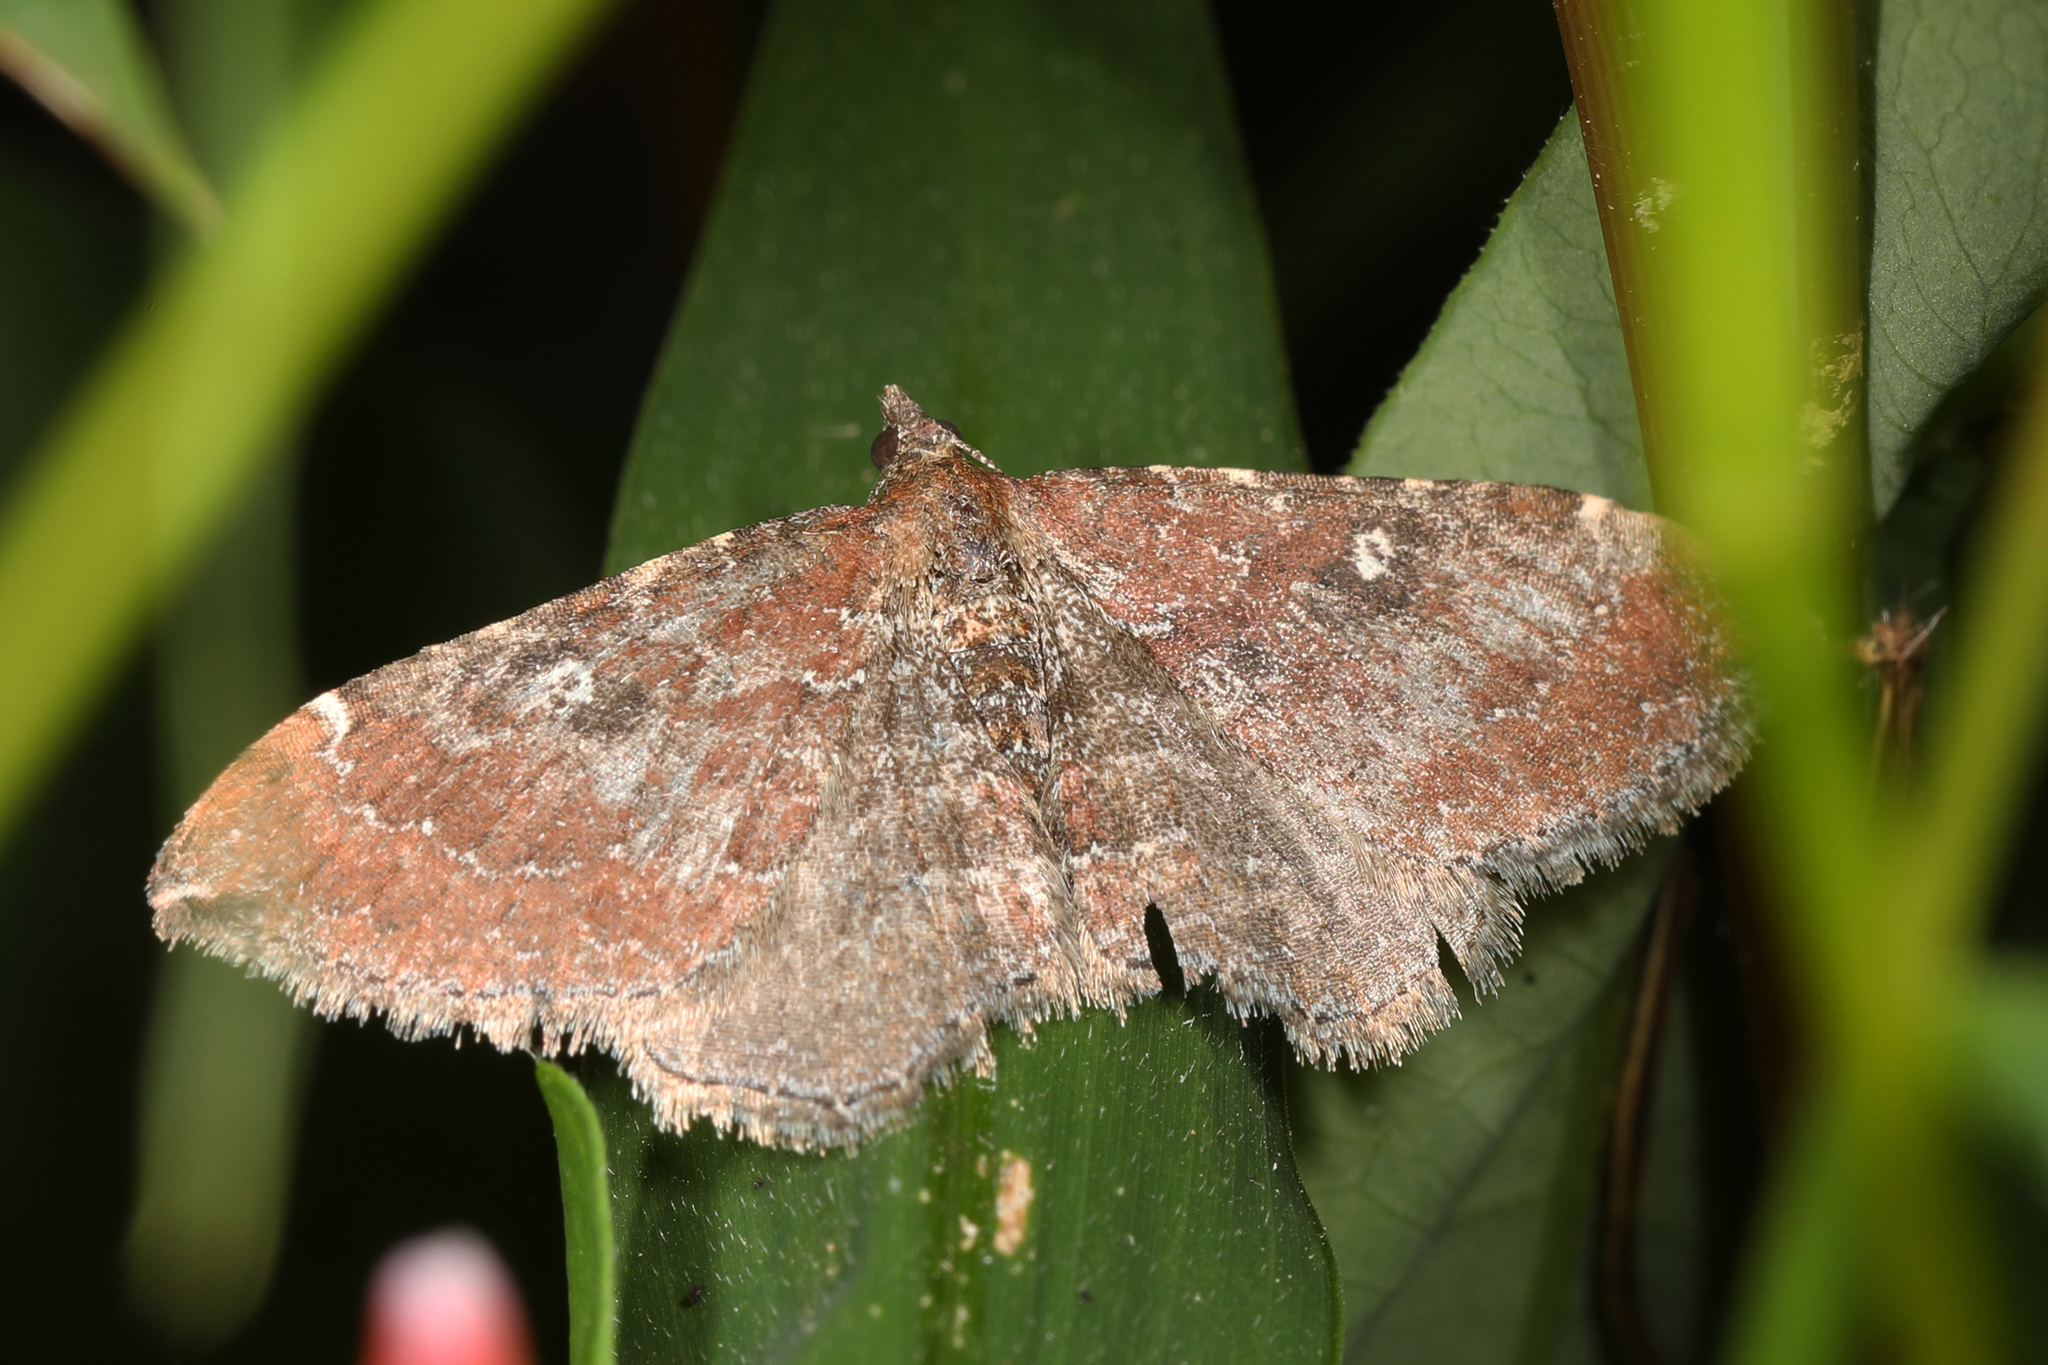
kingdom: Animalia
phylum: Arthropoda
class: Insecta
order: Lepidoptera
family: Geometridae
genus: Orthonama
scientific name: Orthonama obstipata
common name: The gem
